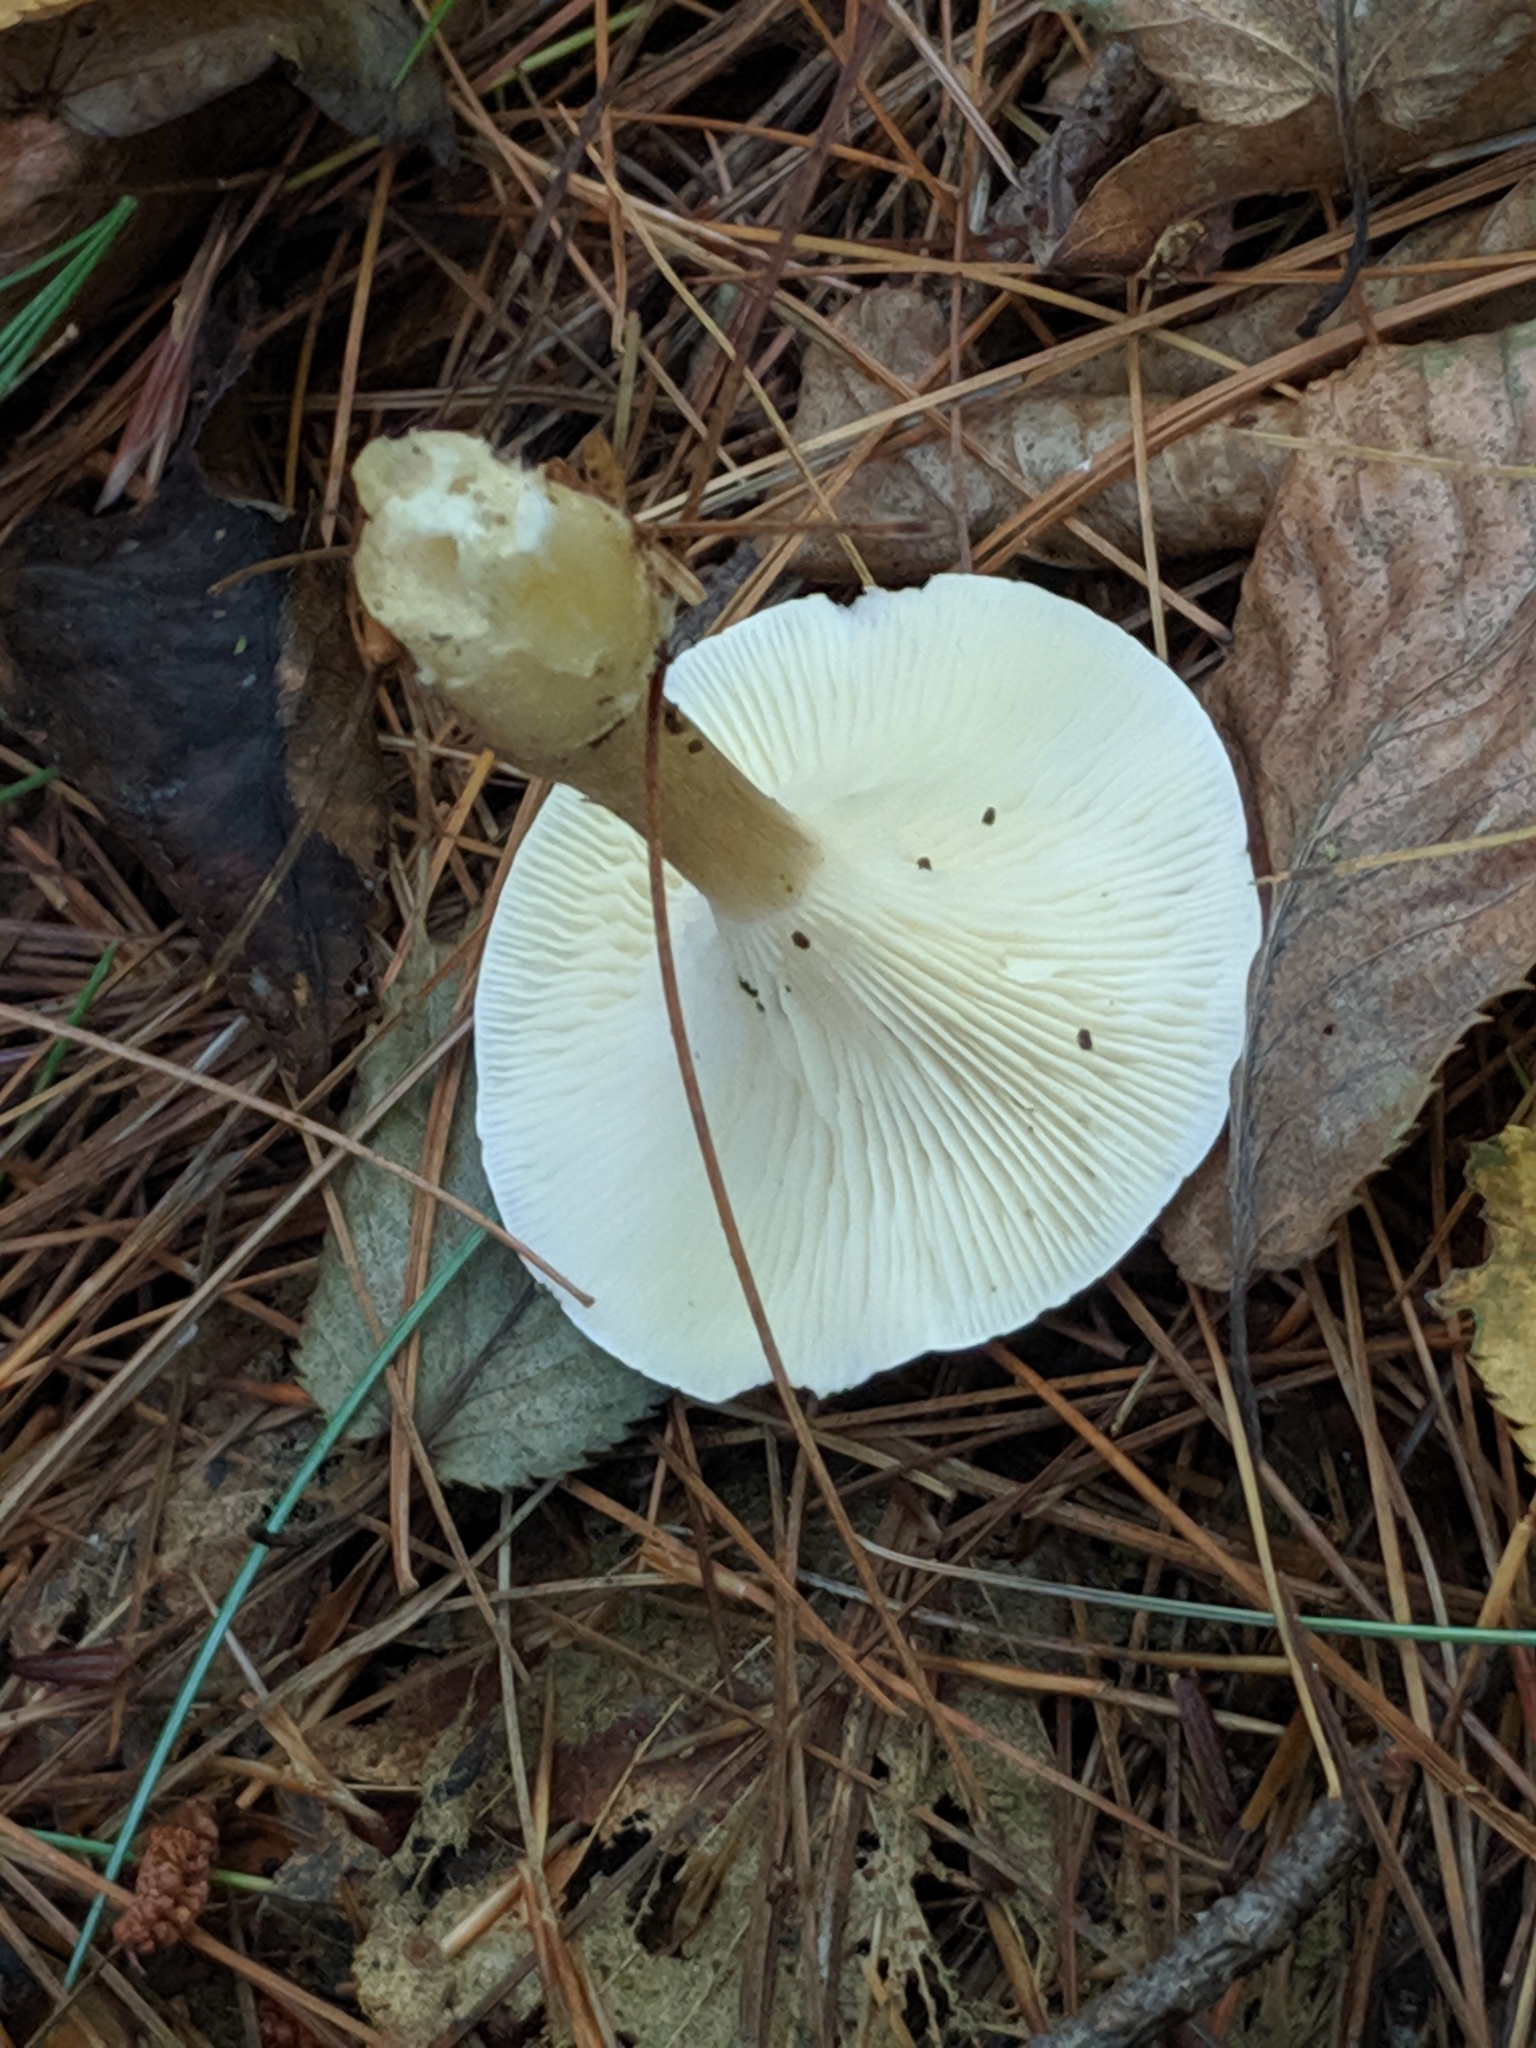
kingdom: Fungi
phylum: Basidiomycota
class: Agaricomycetes
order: Agaricales
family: Hygrophoraceae
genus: Ampulloclitocybe
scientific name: Ampulloclitocybe clavipes
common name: Club foot
